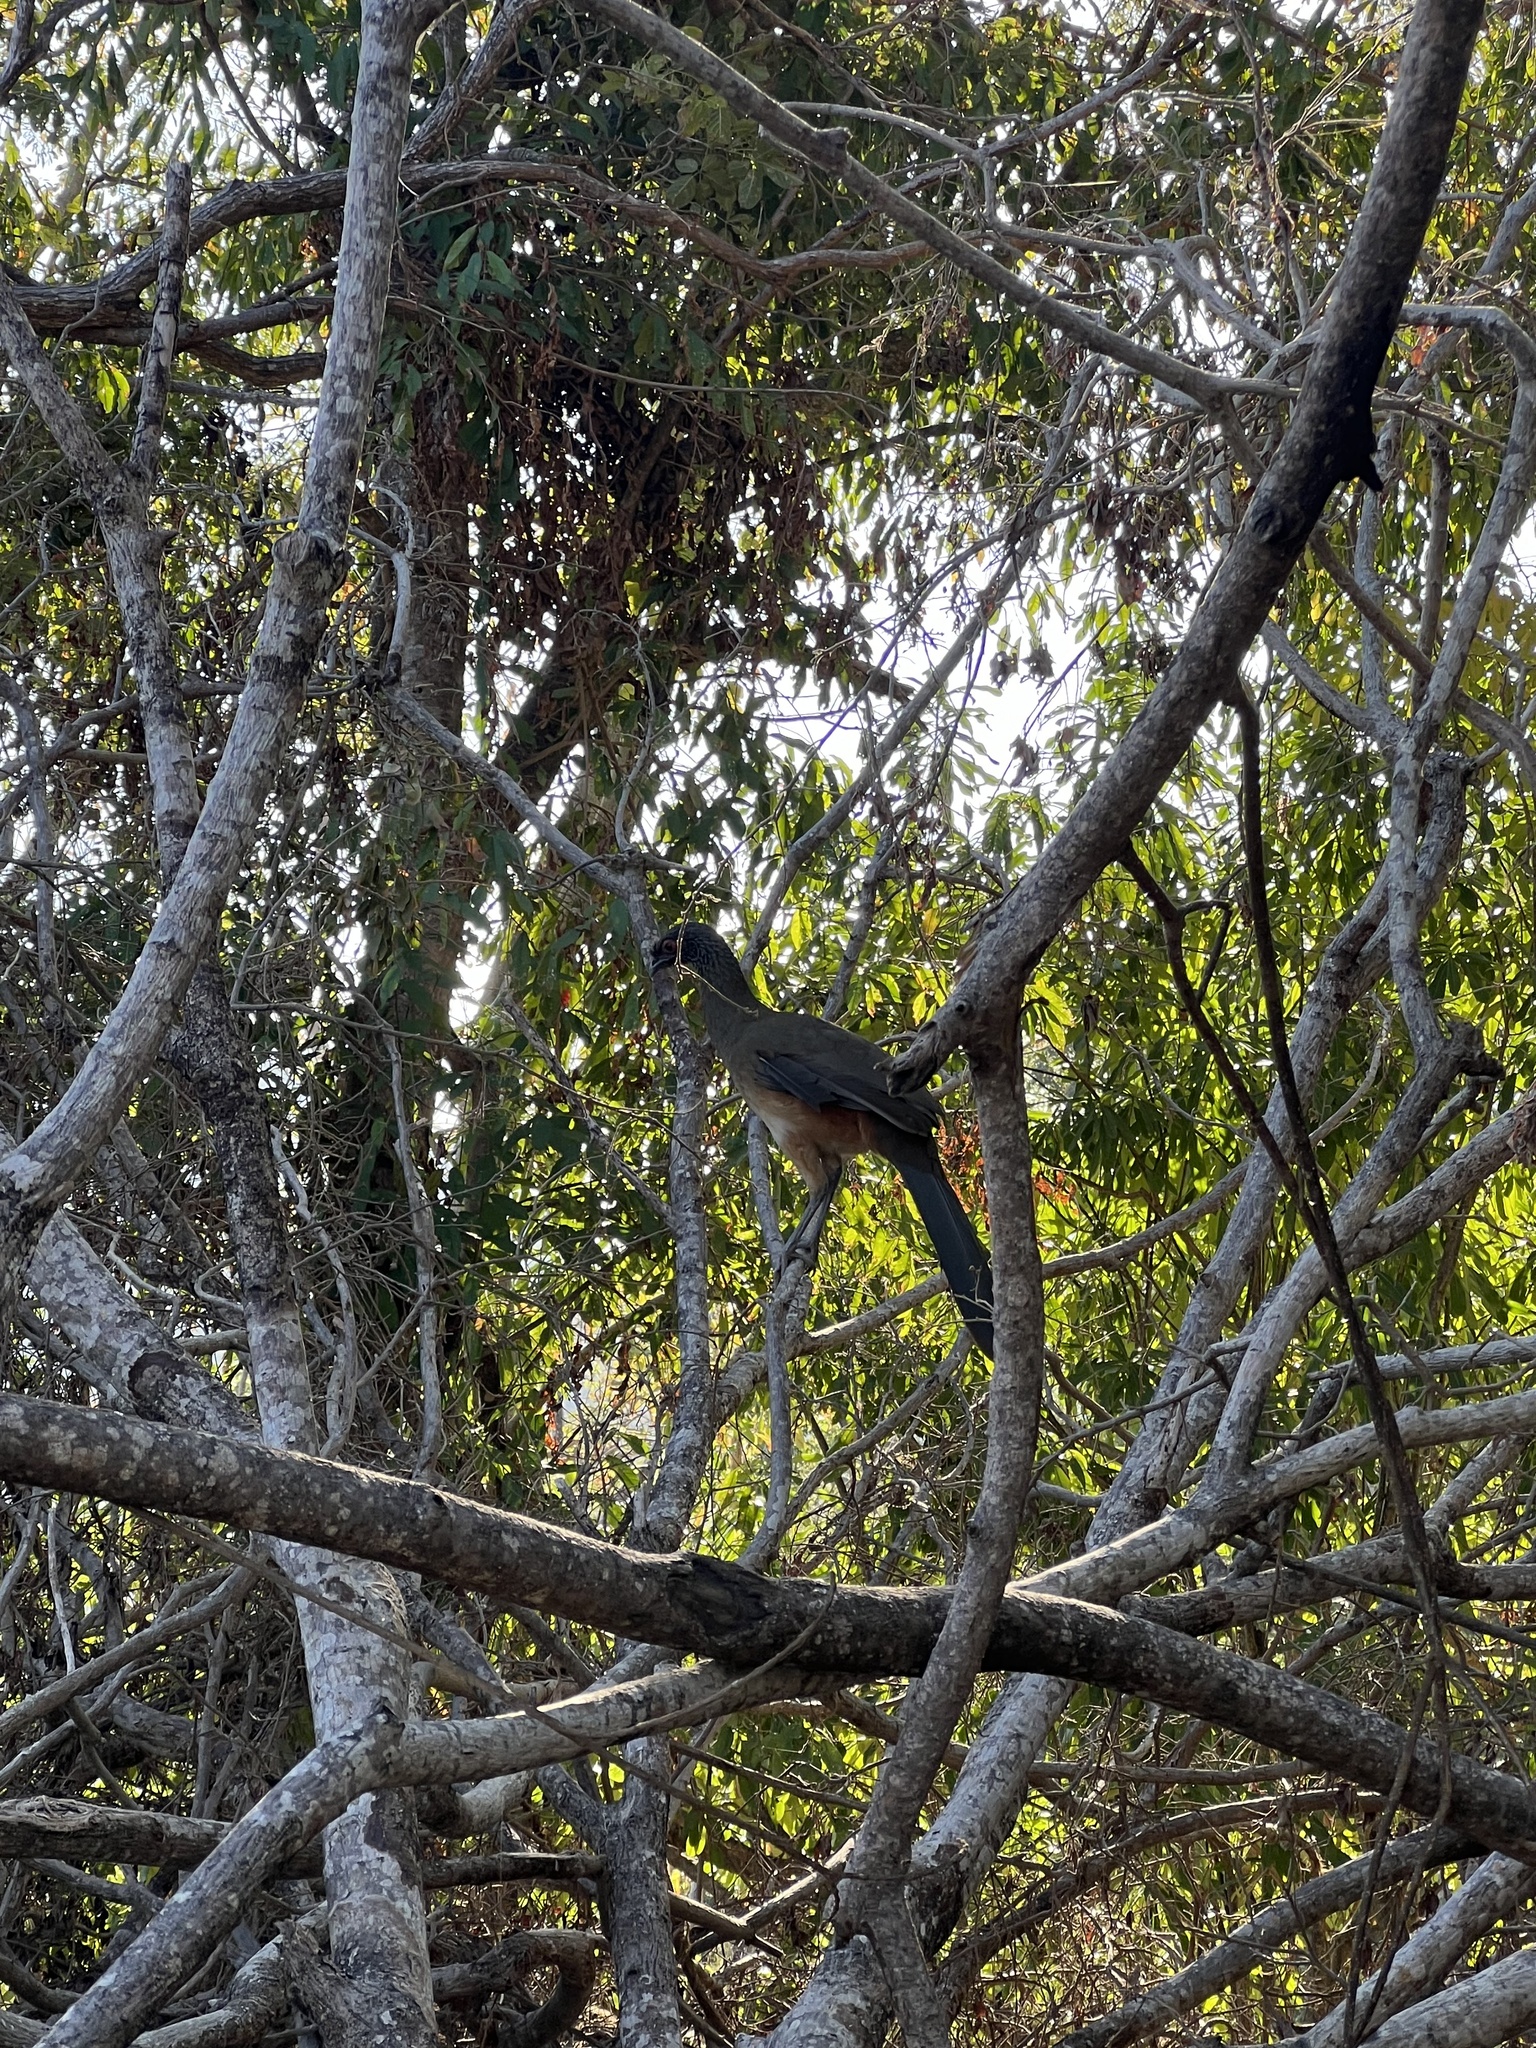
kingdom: Animalia
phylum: Chordata
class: Aves
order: Galliformes
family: Cracidae
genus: Ortalis
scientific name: Ortalis poliocephala
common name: West mexican chachalaca
